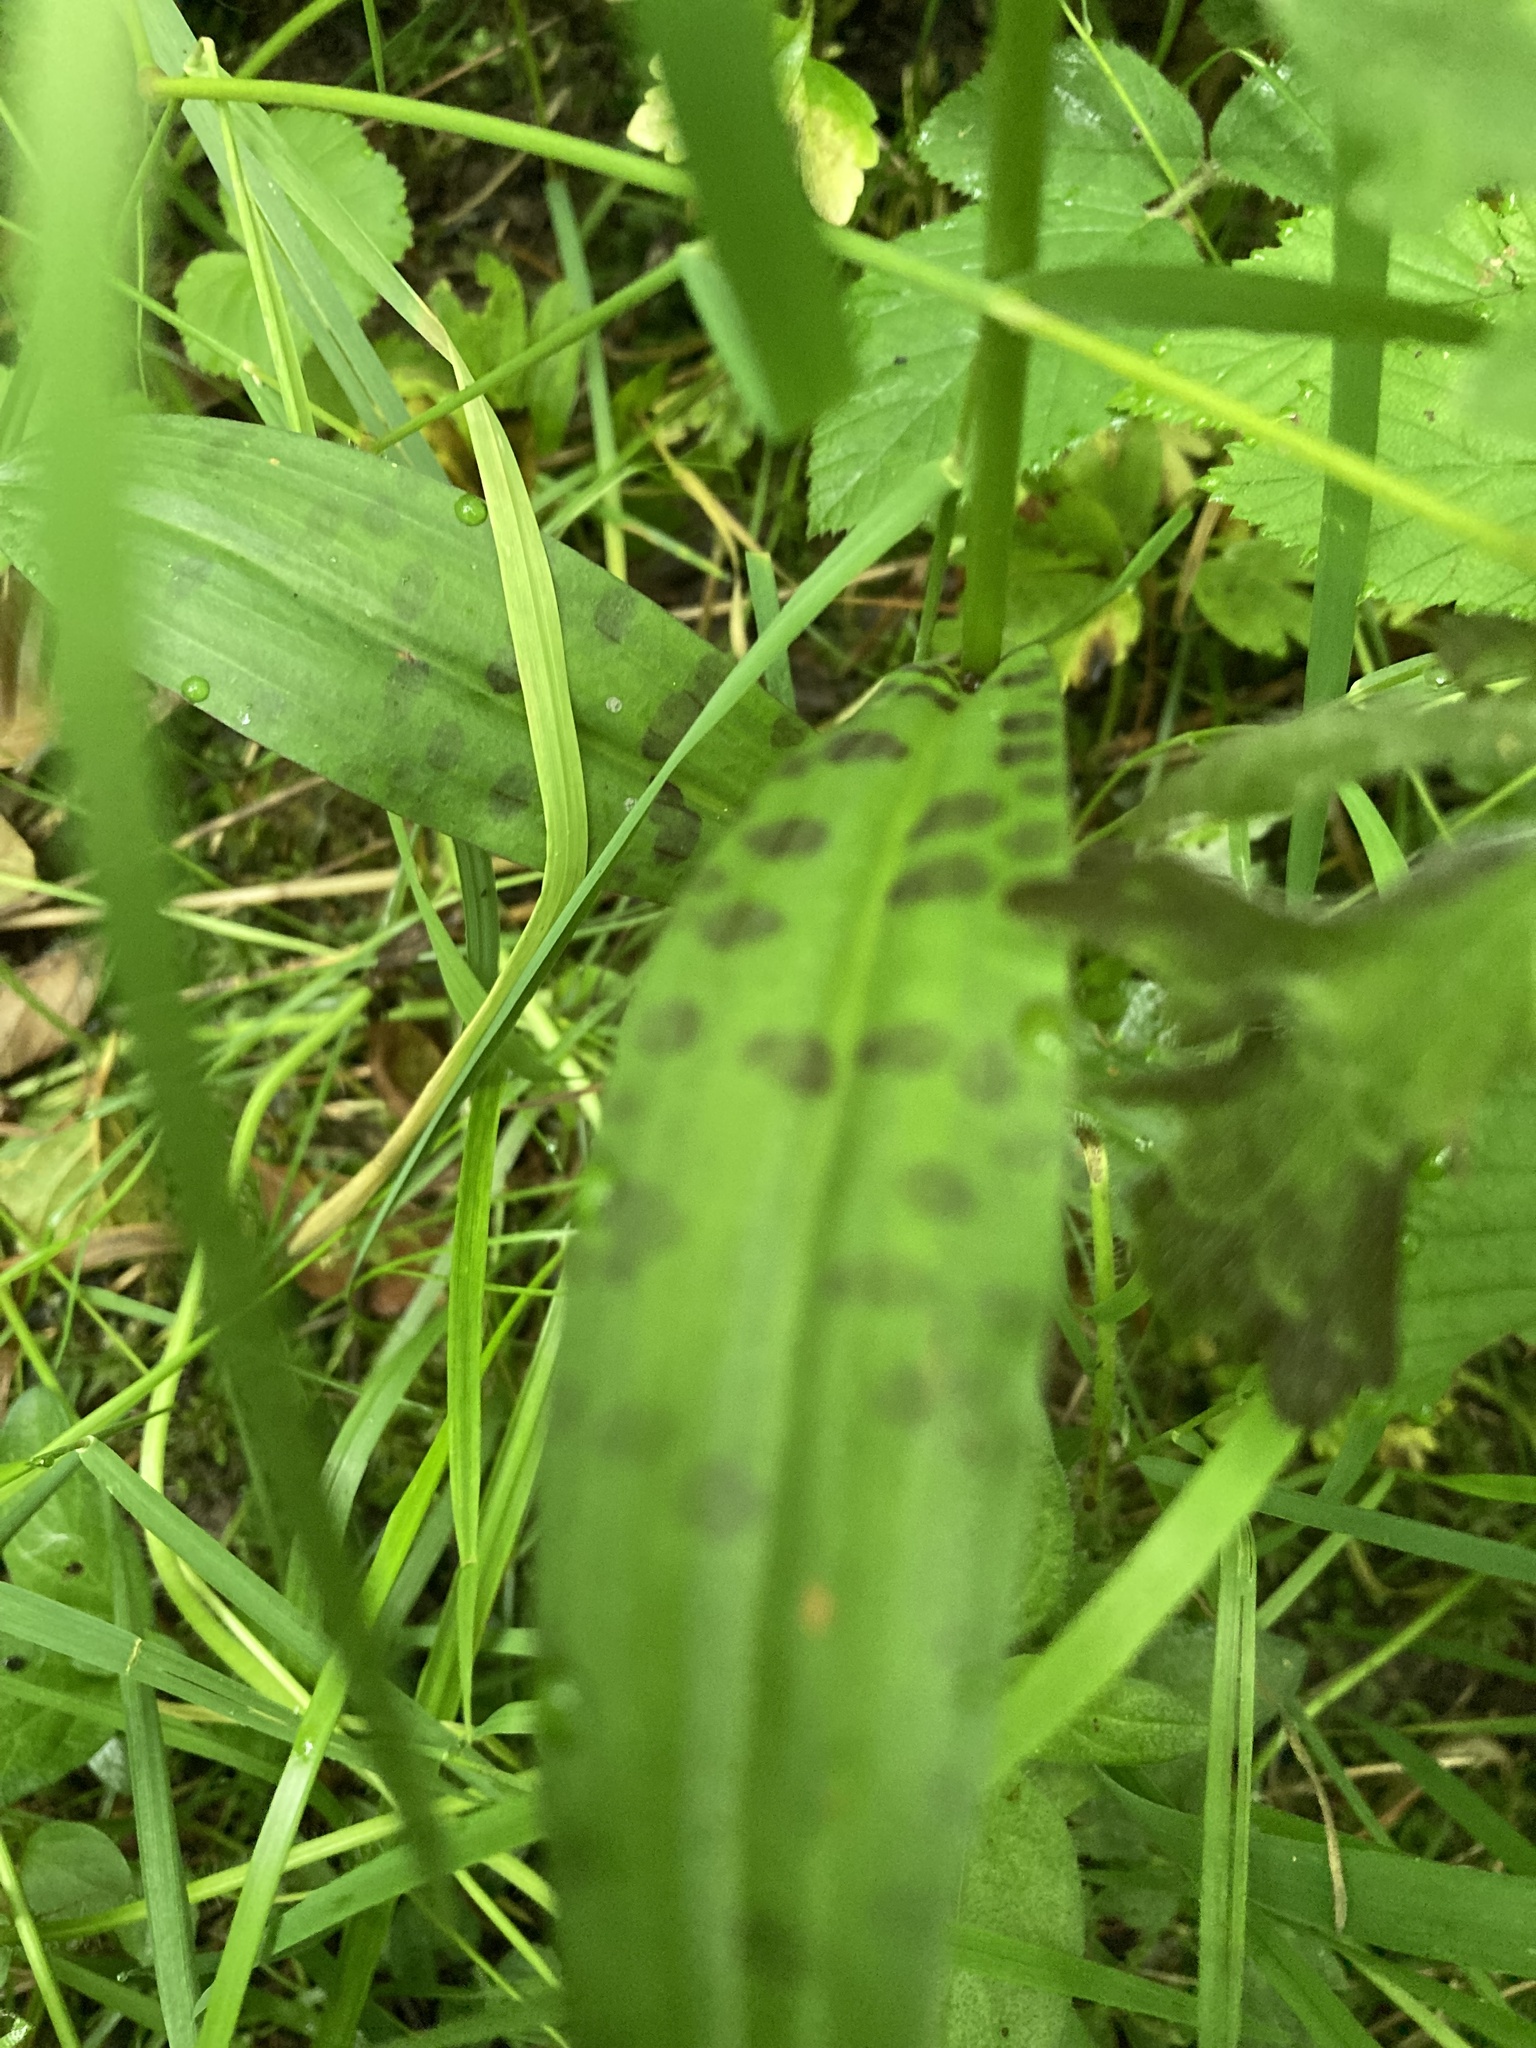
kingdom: Plantae
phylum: Tracheophyta
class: Liliopsida
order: Asparagales
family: Orchidaceae
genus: Dactylorhiza
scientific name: Dactylorhiza maculata
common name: Heath spotted-orchid
